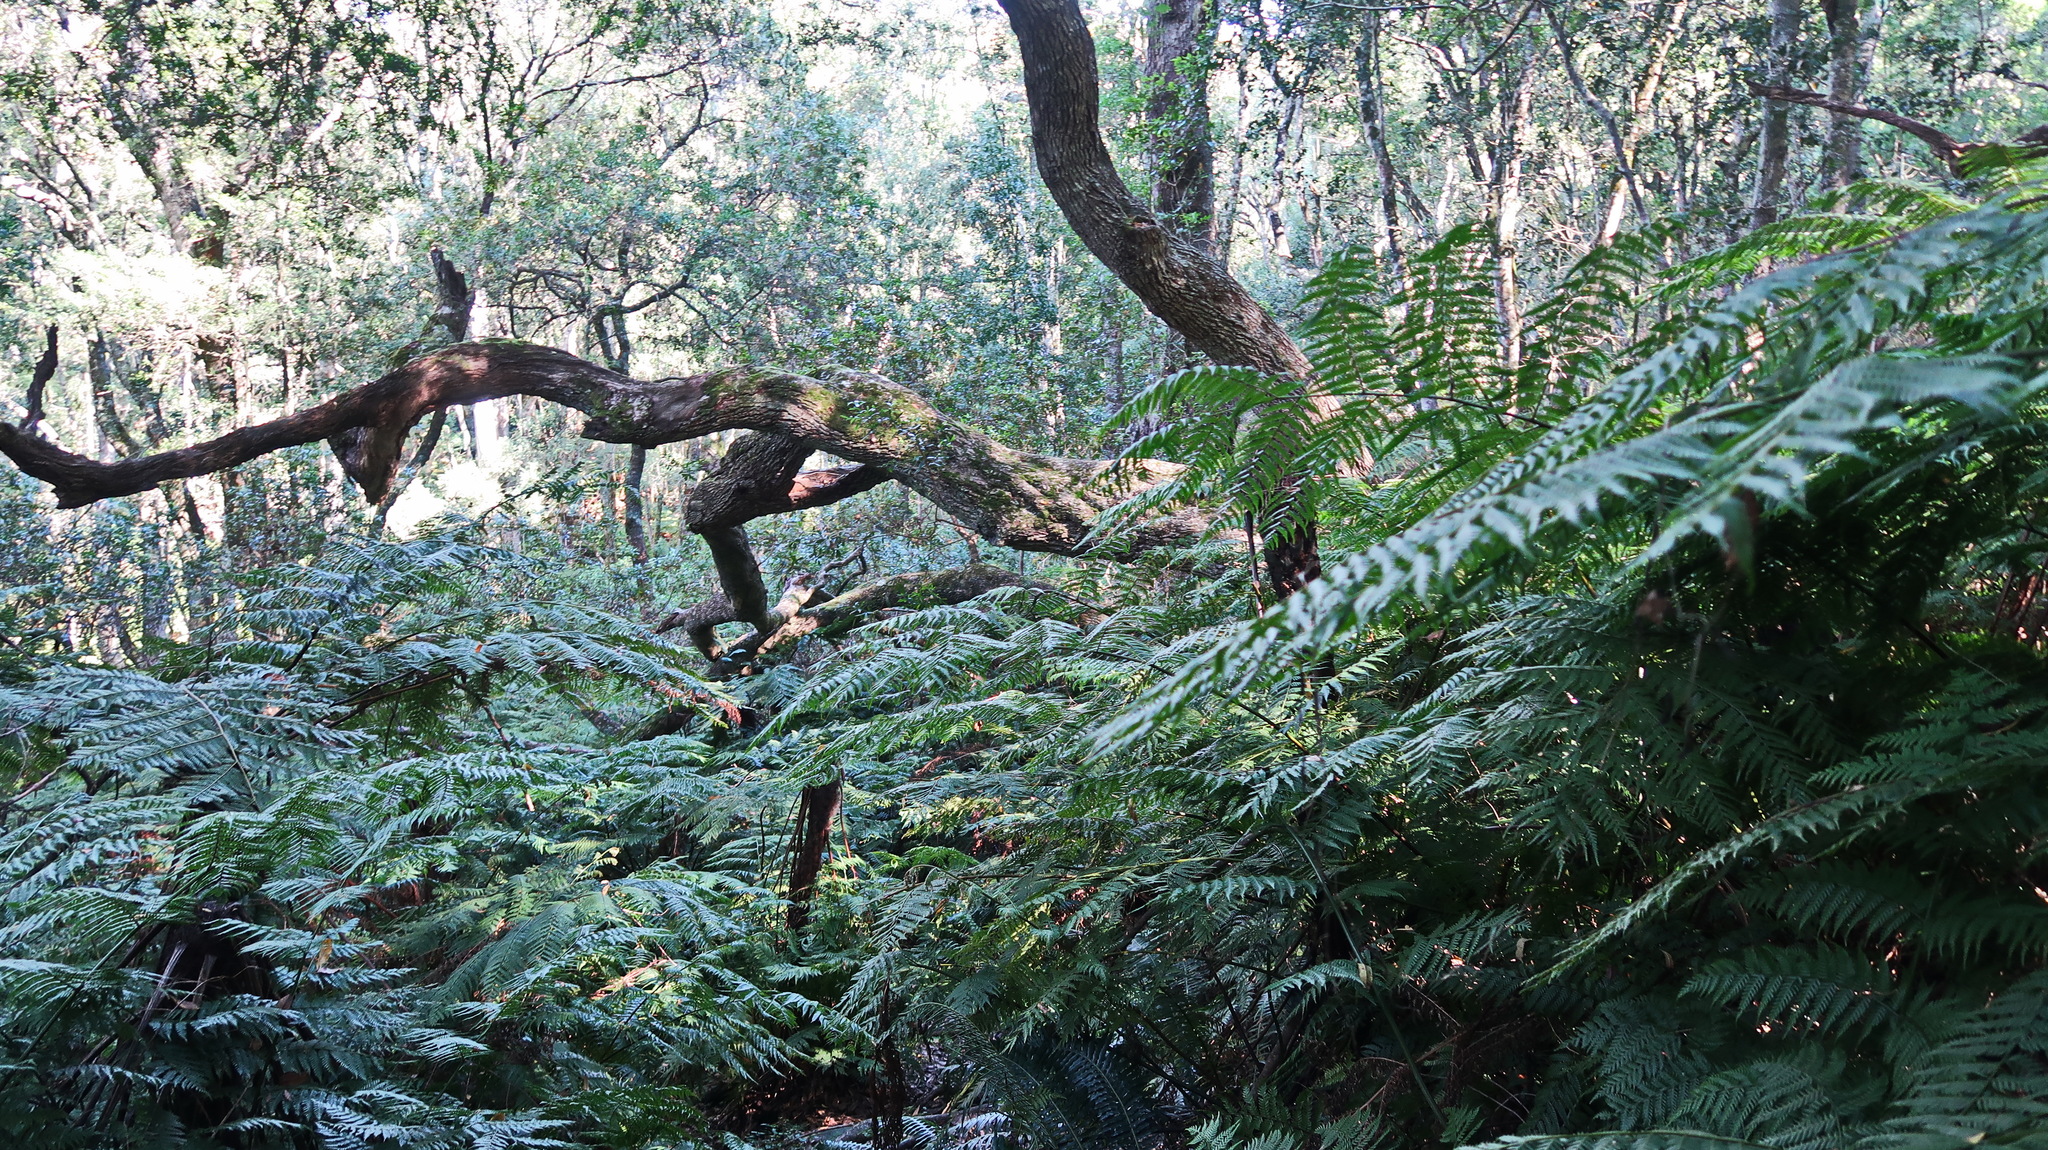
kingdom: Plantae
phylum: Tracheophyta
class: Polypodiopsida
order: Cyatheales
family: Cyatheaceae
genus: Gymnosphaera
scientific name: Gymnosphaera capensis
